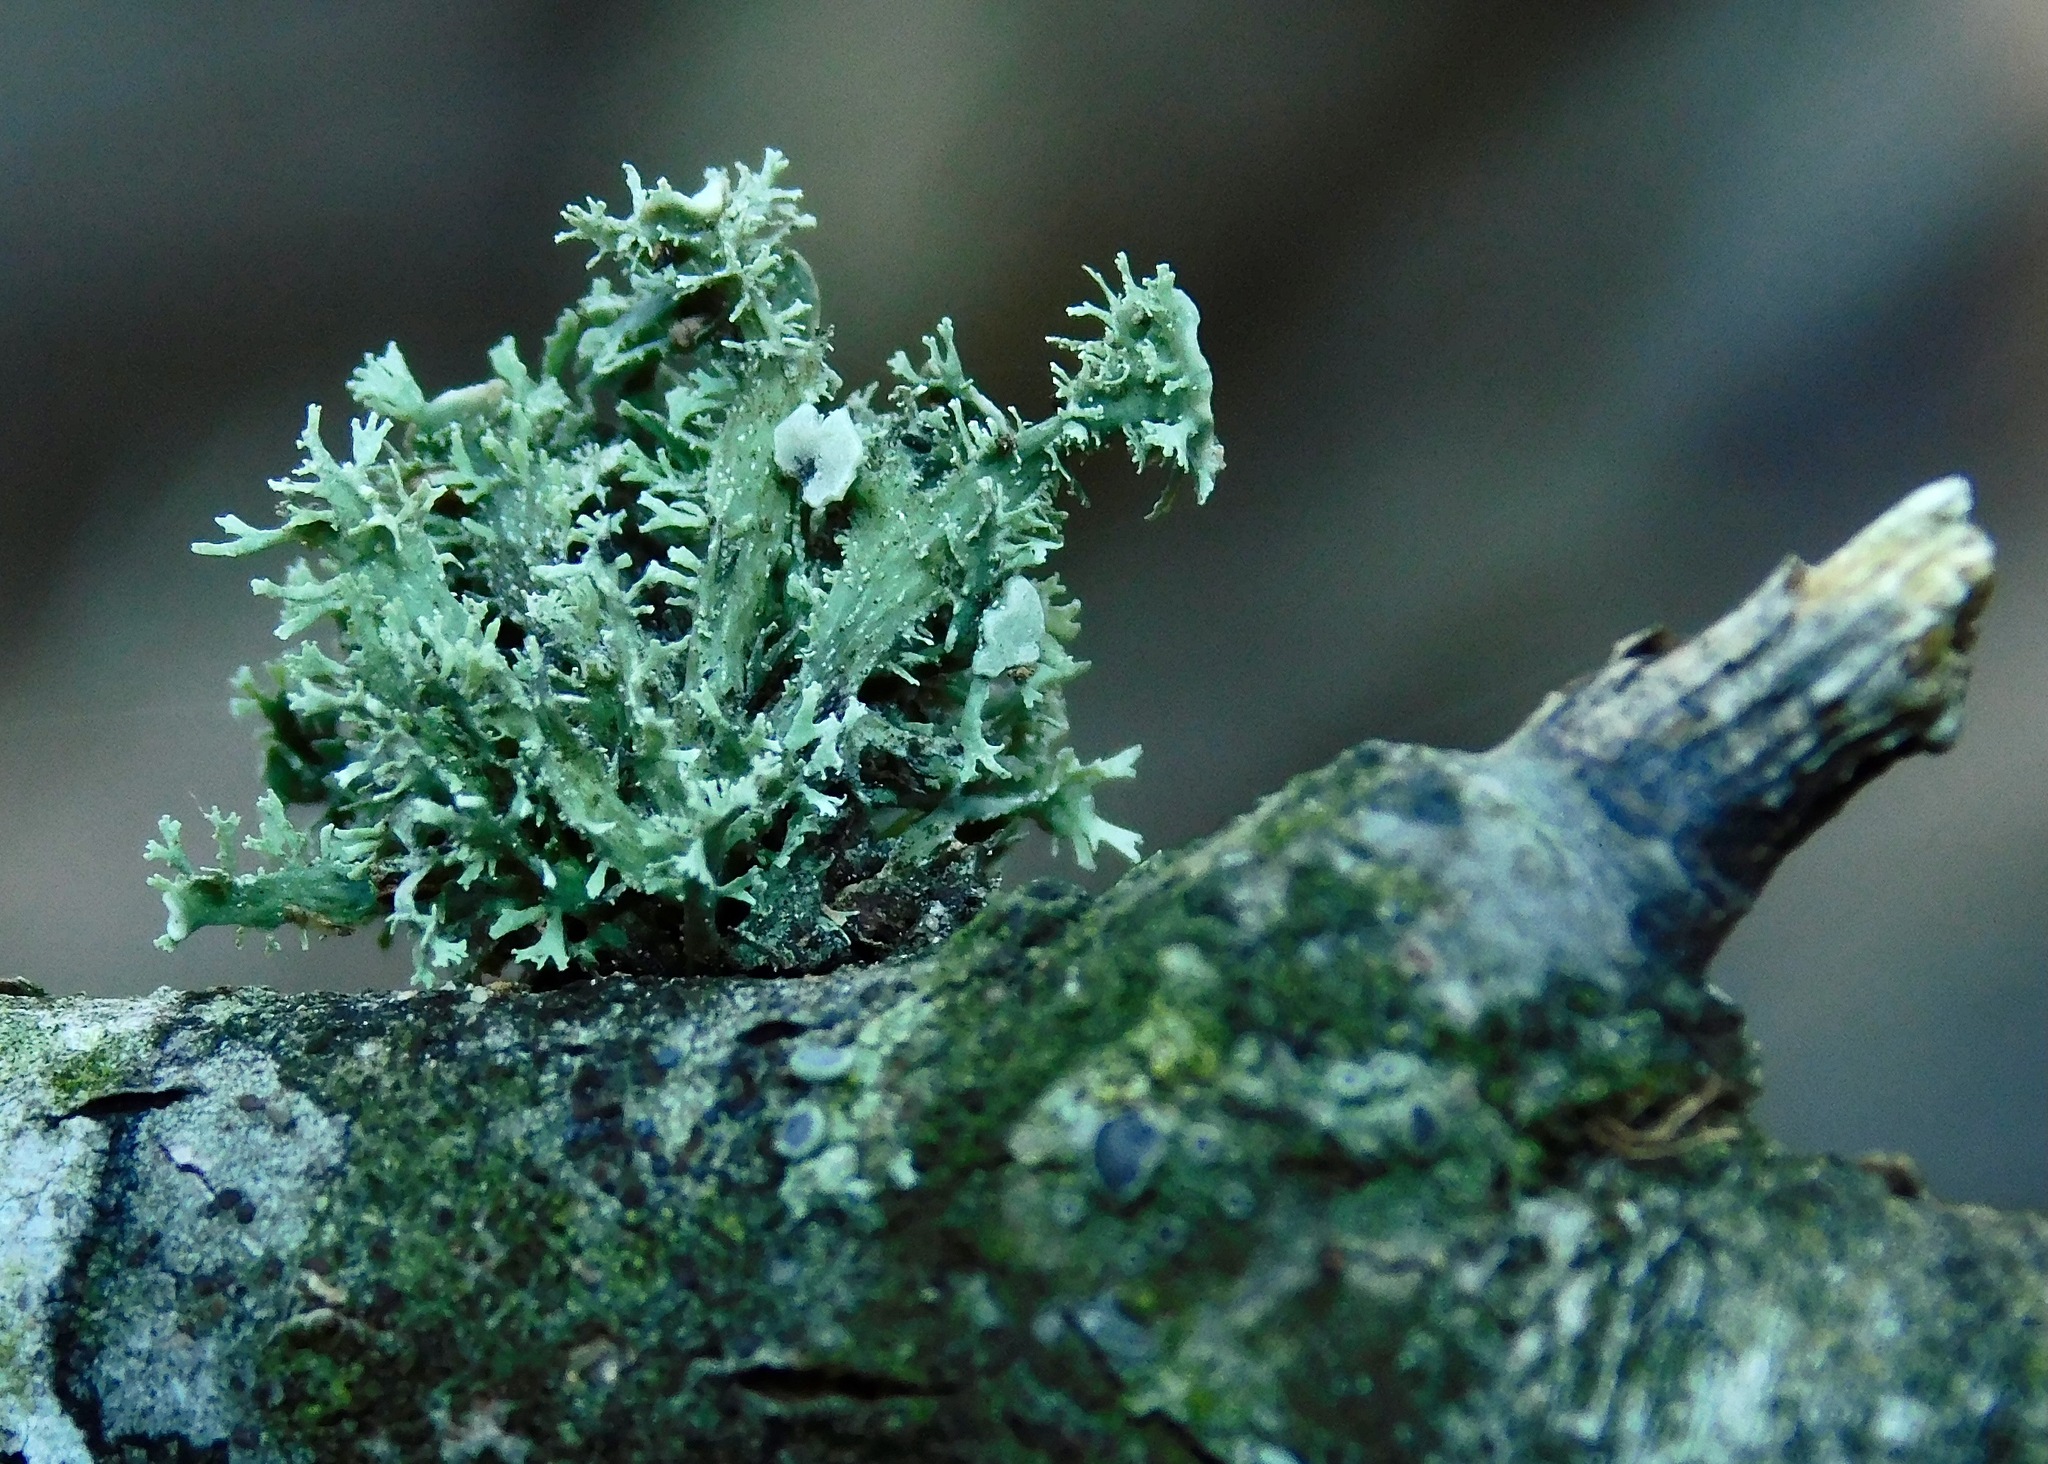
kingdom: Fungi
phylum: Ascomycota
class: Lecanoromycetes
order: Lecanorales
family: Ramalinaceae
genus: Ramalina
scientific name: Ramalina americana
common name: Sinewed bush lichen
